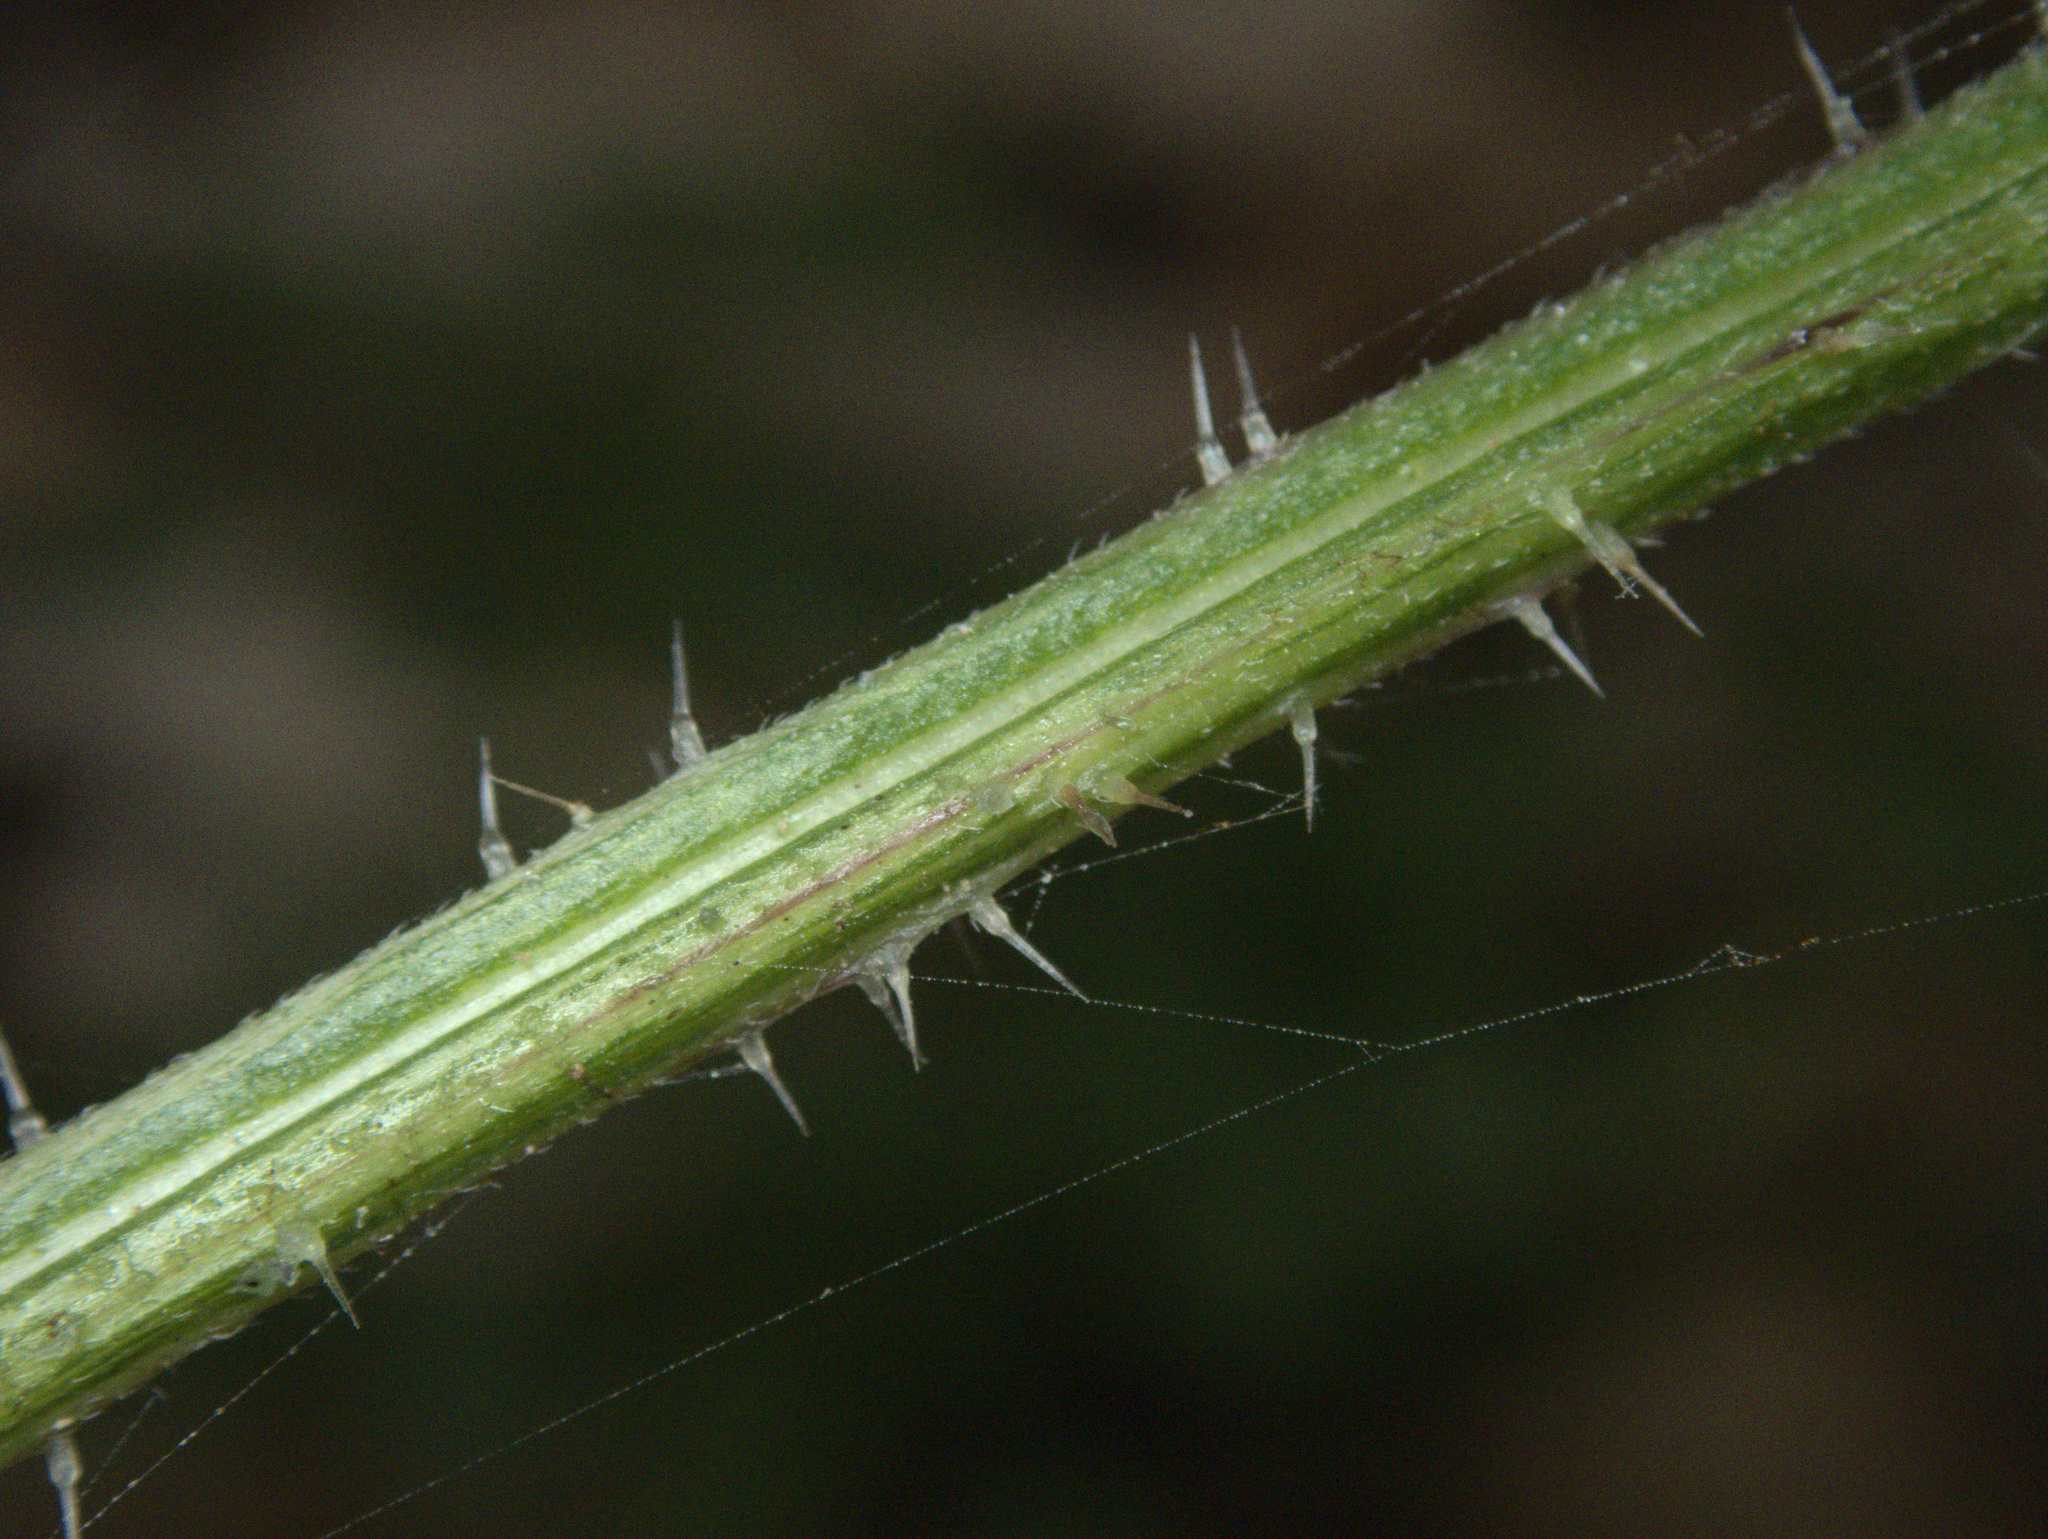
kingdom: Plantae
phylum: Tracheophyta
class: Magnoliopsida
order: Rosales
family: Urticaceae
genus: Urtica
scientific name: Urtica australis
